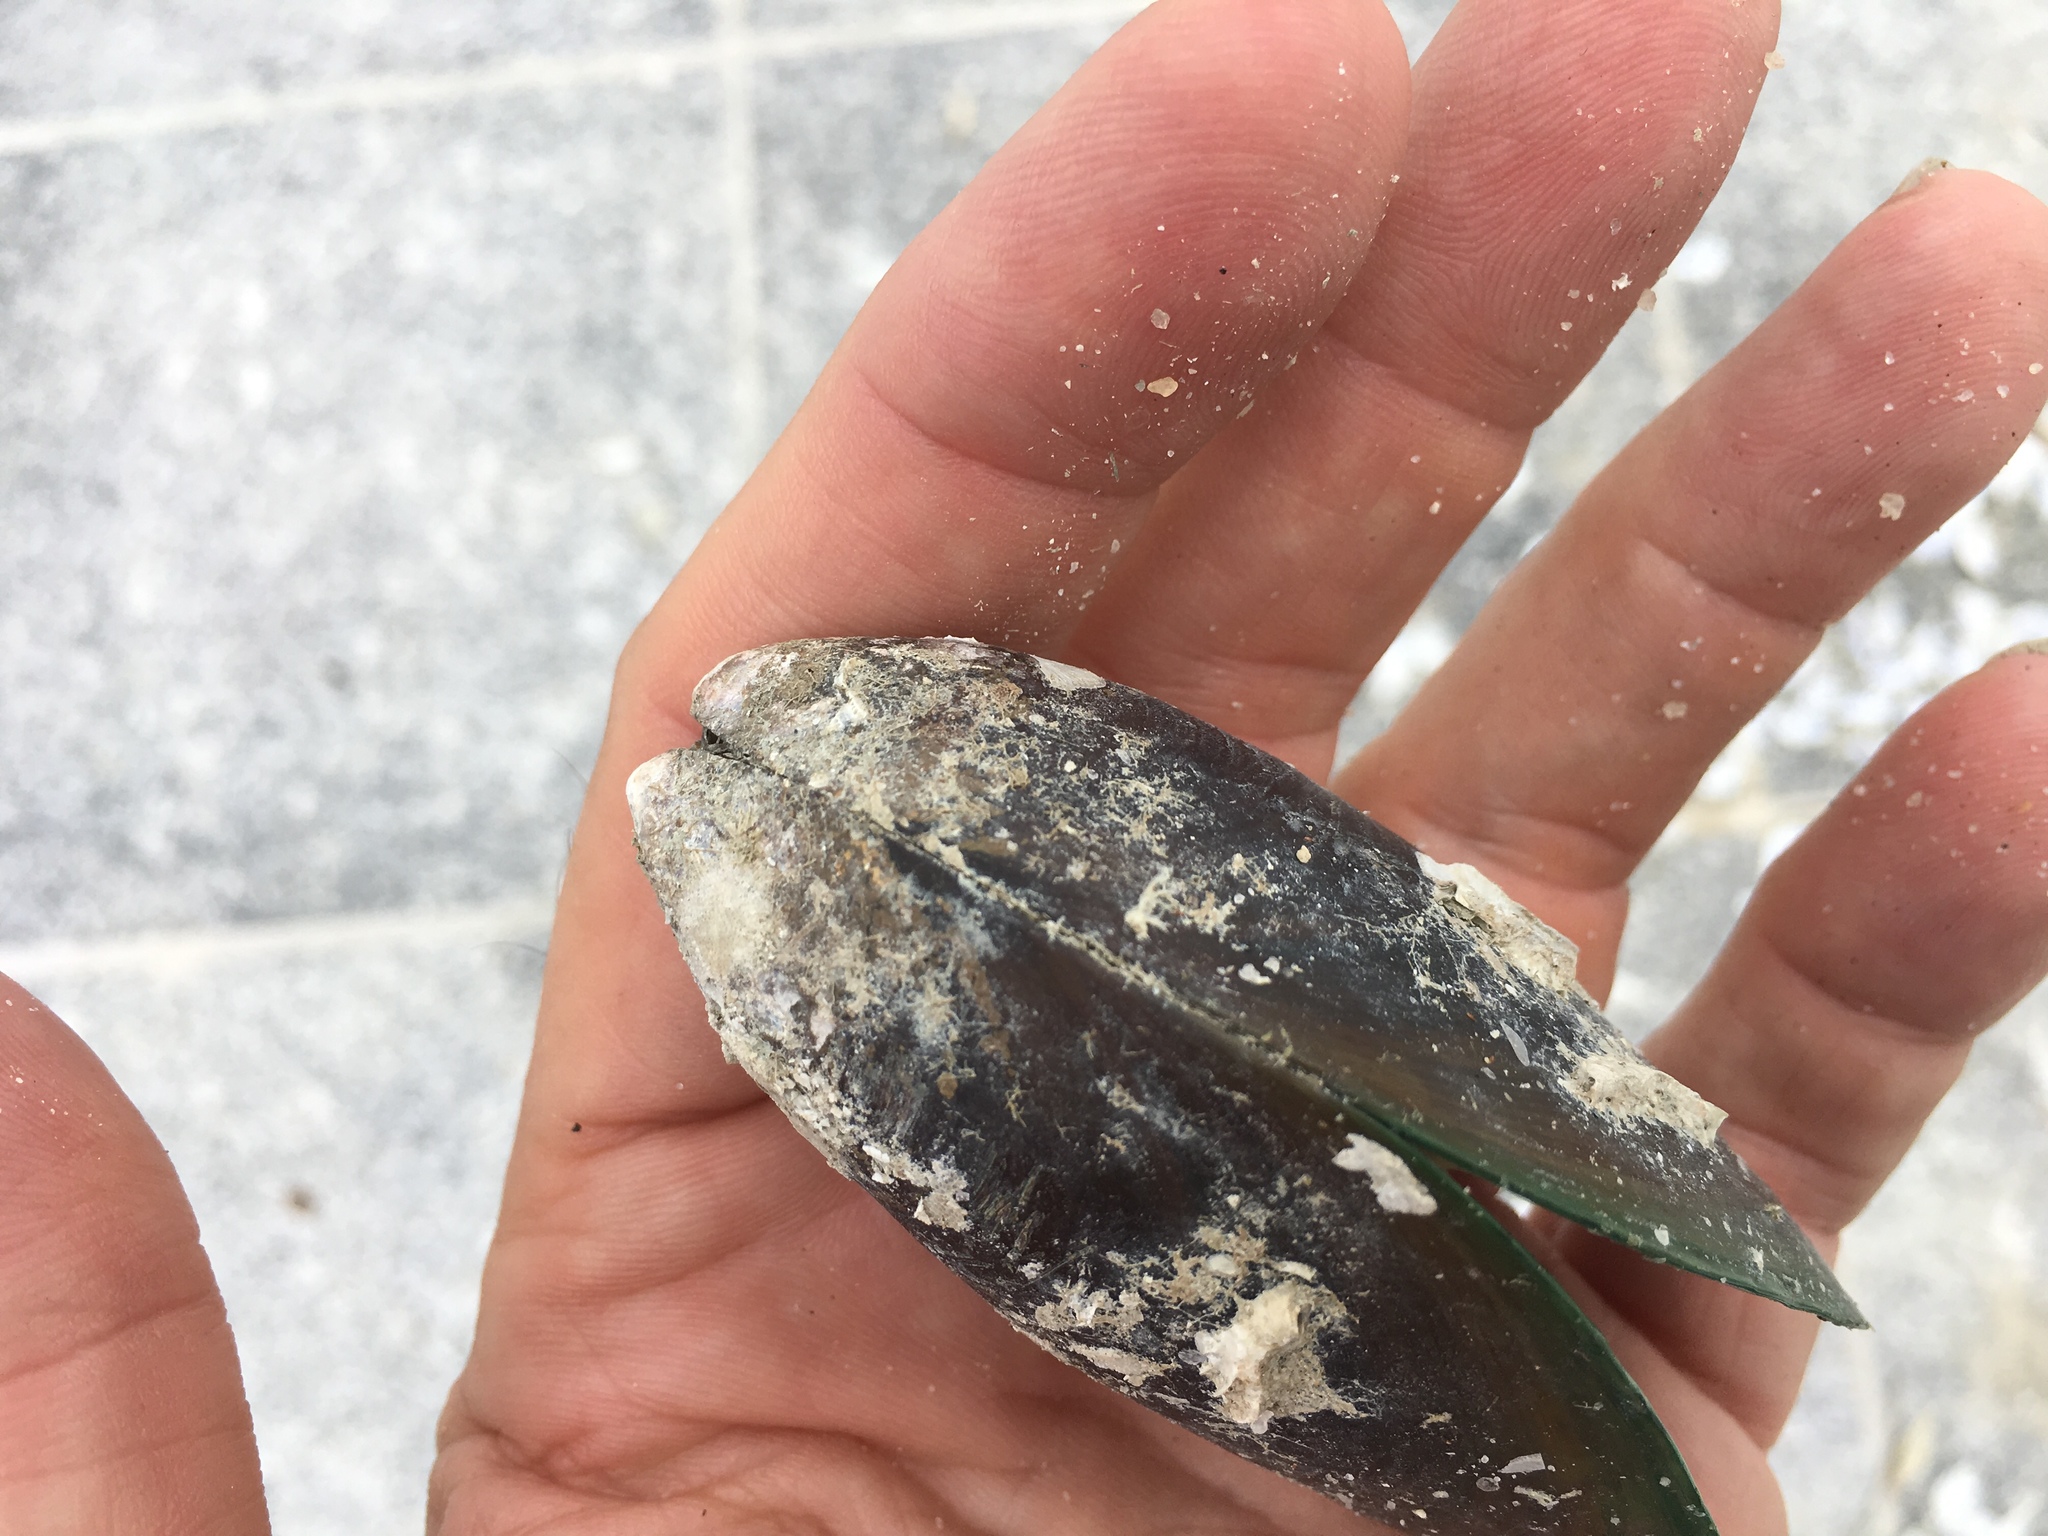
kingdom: Animalia
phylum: Mollusca
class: Bivalvia
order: Mytilida
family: Mytilidae
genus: Perna
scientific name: Perna viridis
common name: Green mussel
